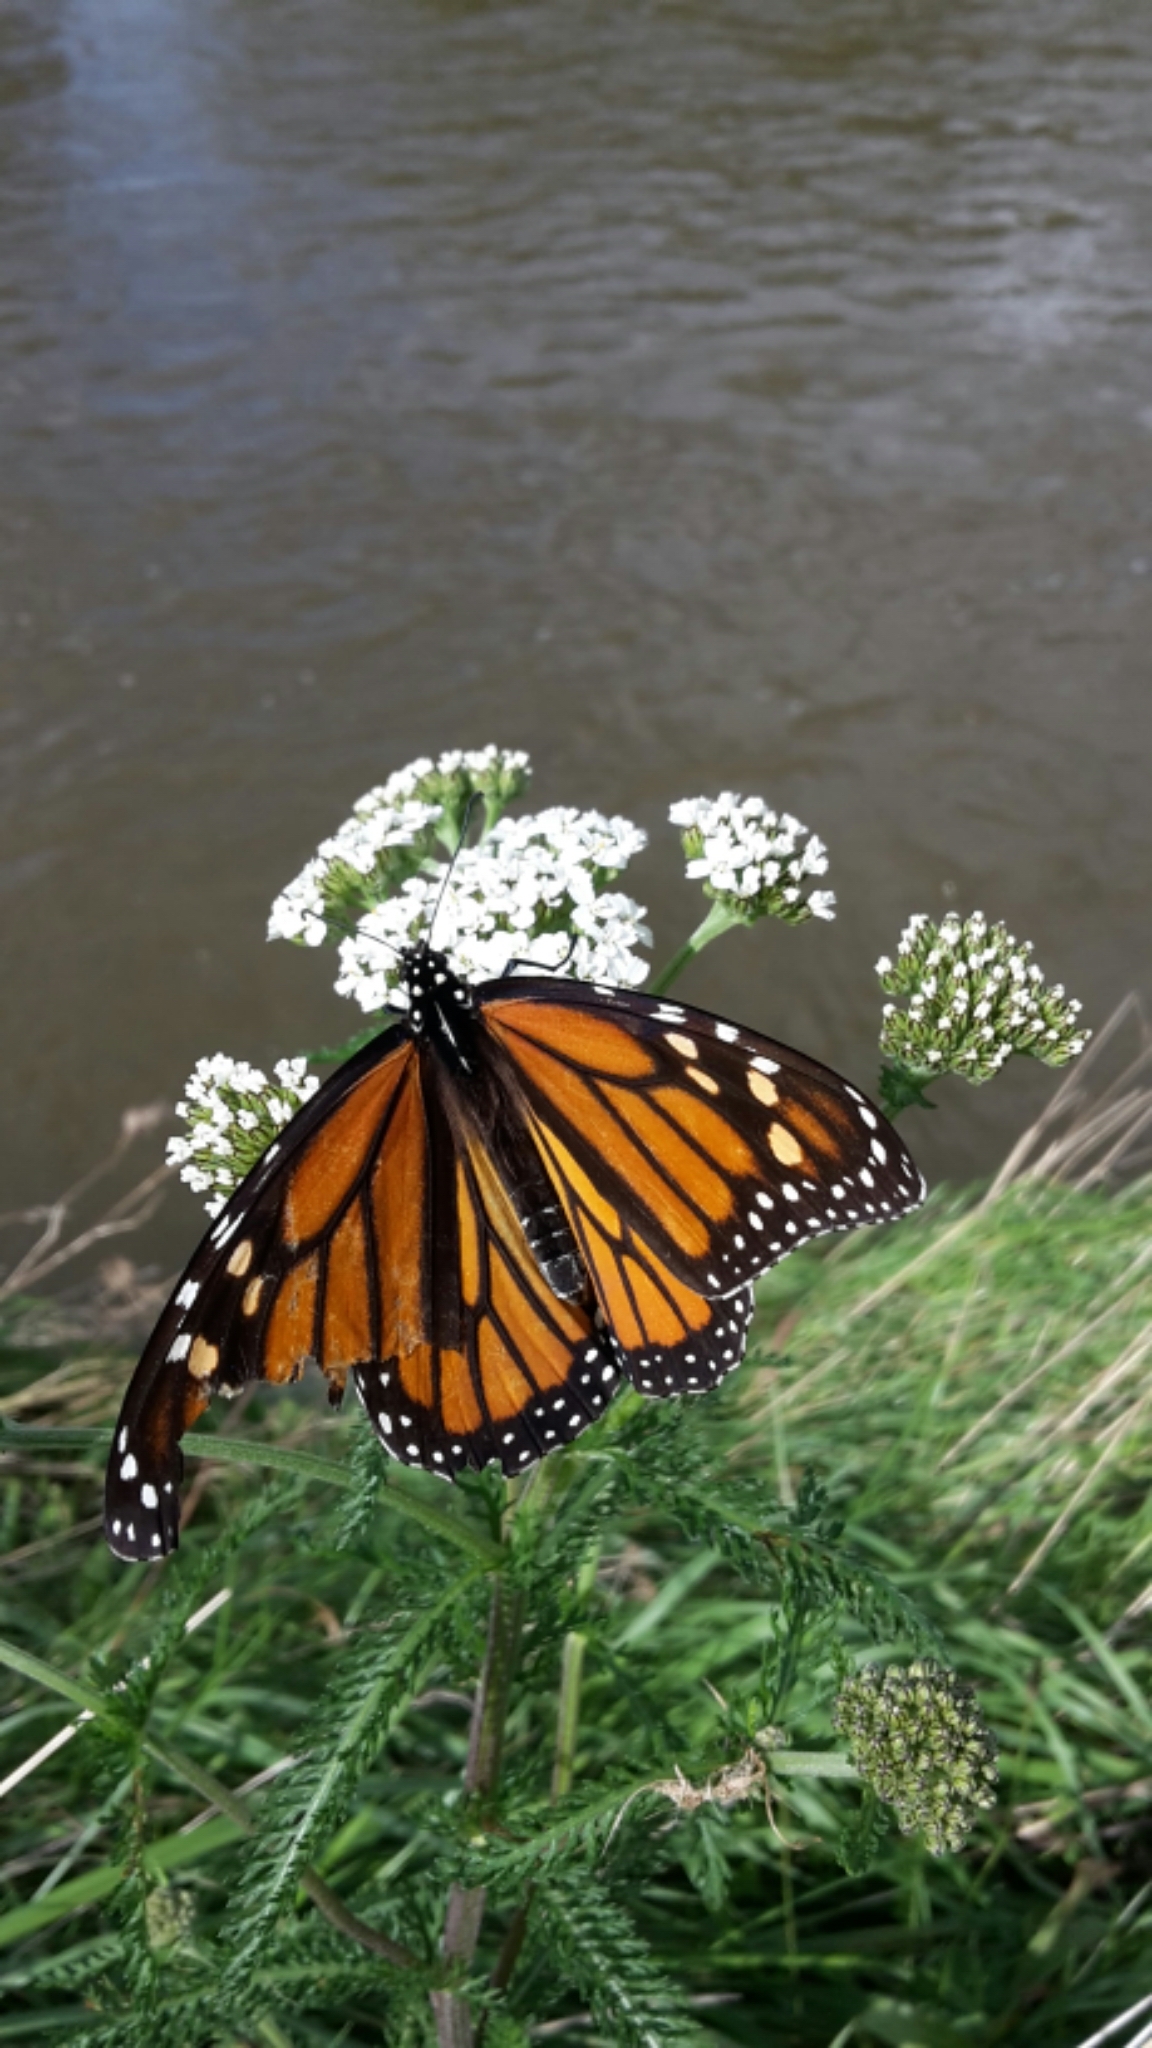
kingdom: Animalia
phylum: Arthropoda
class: Insecta
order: Lepidoptera
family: Nymphalidae
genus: Danaus
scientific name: Danaus plexippus
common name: Monarch
